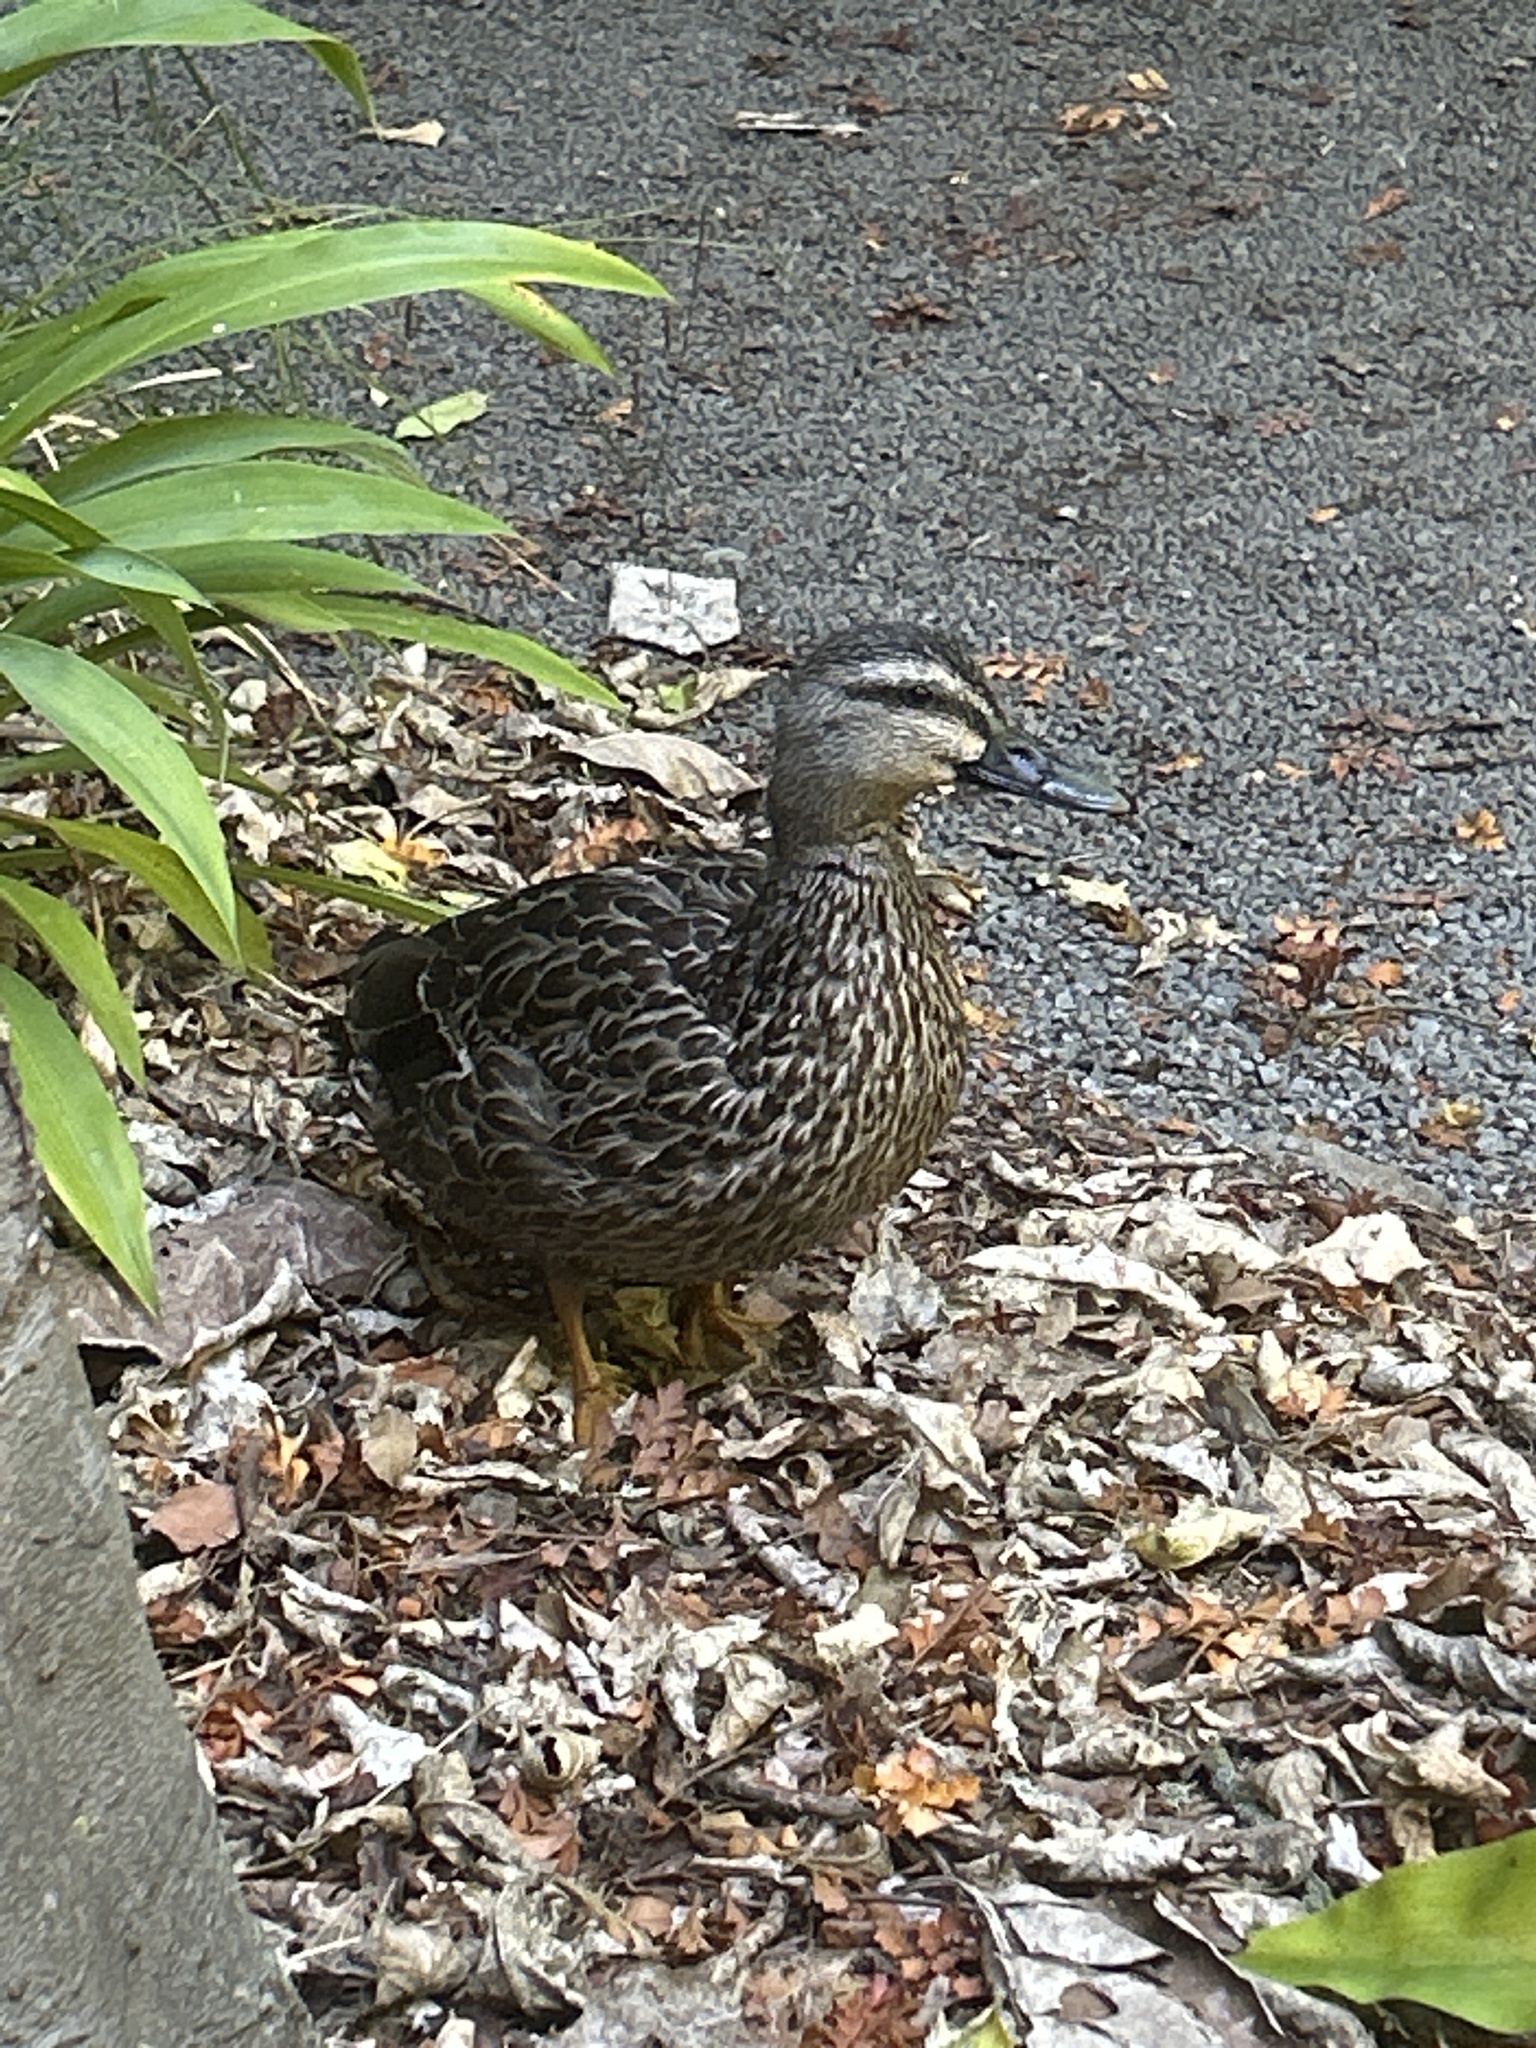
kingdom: Animalia
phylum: Chordata
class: Aves
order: Anseriformes
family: Anatidae
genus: Anas
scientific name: Anas
